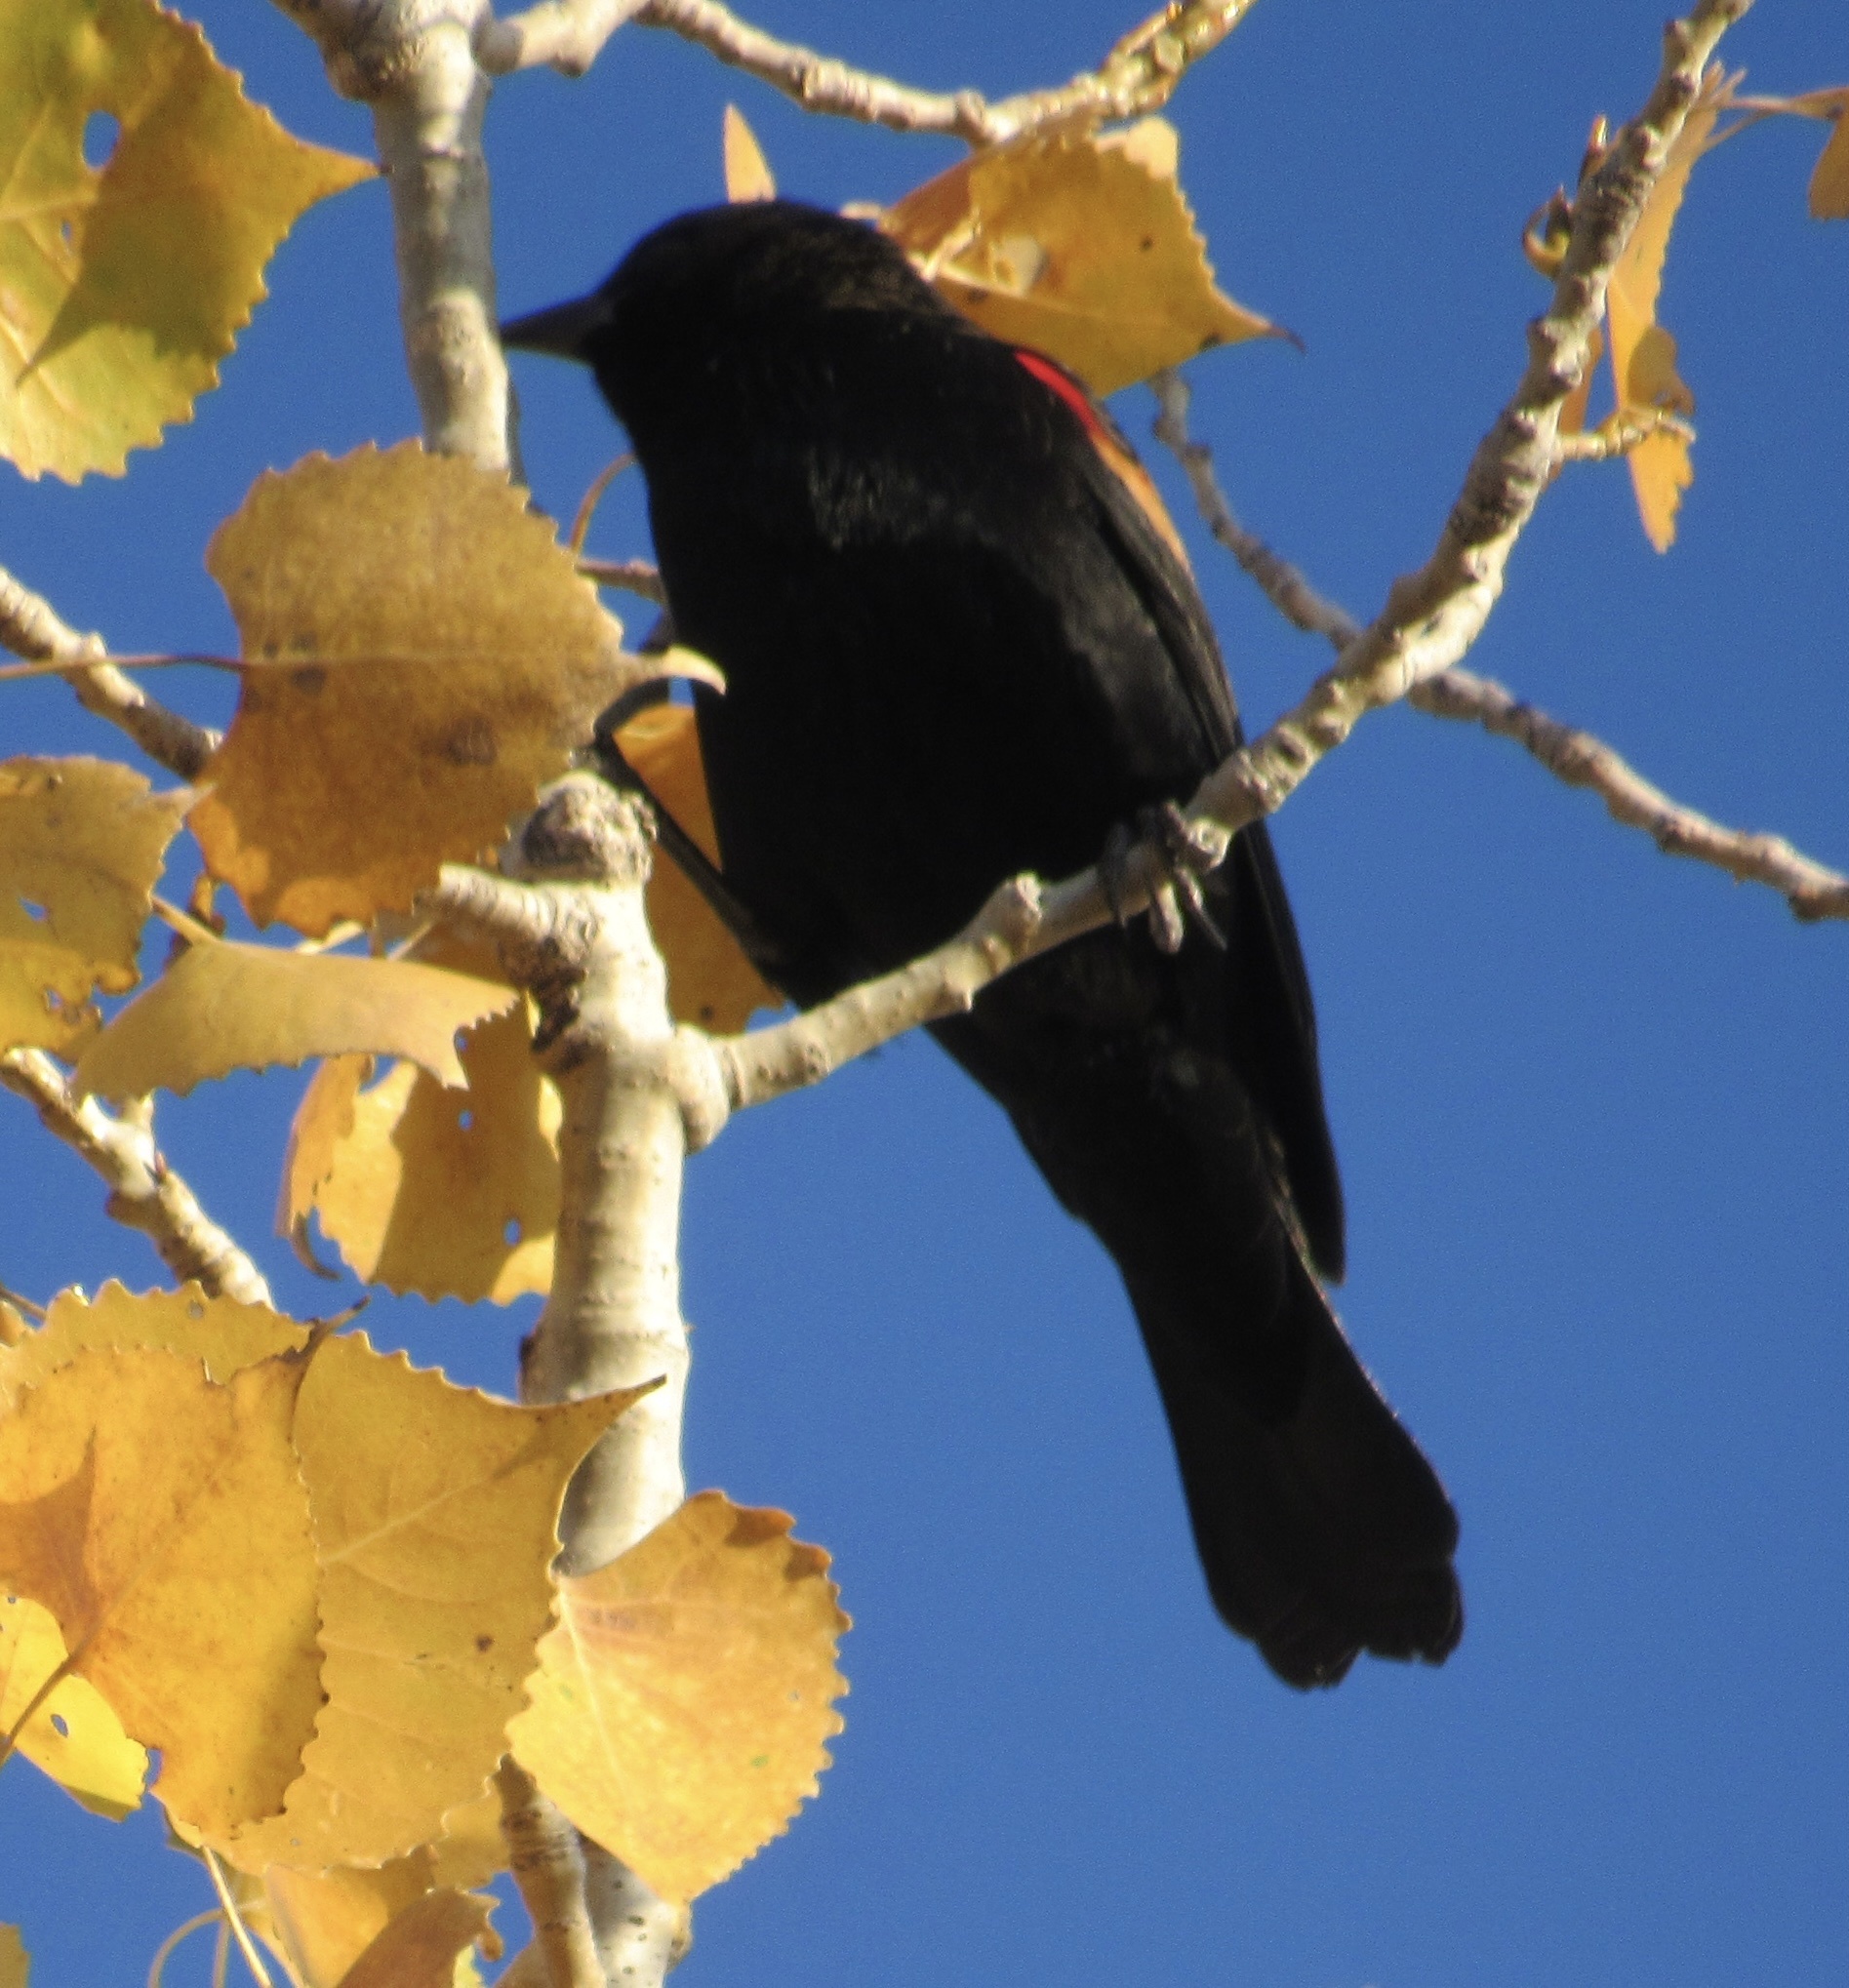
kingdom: Animalia
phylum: Chordata
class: Aves
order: Passeriformes
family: Icteridae
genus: Agelaius
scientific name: Agelaius phoeniceus
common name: Red-winged blackbird
